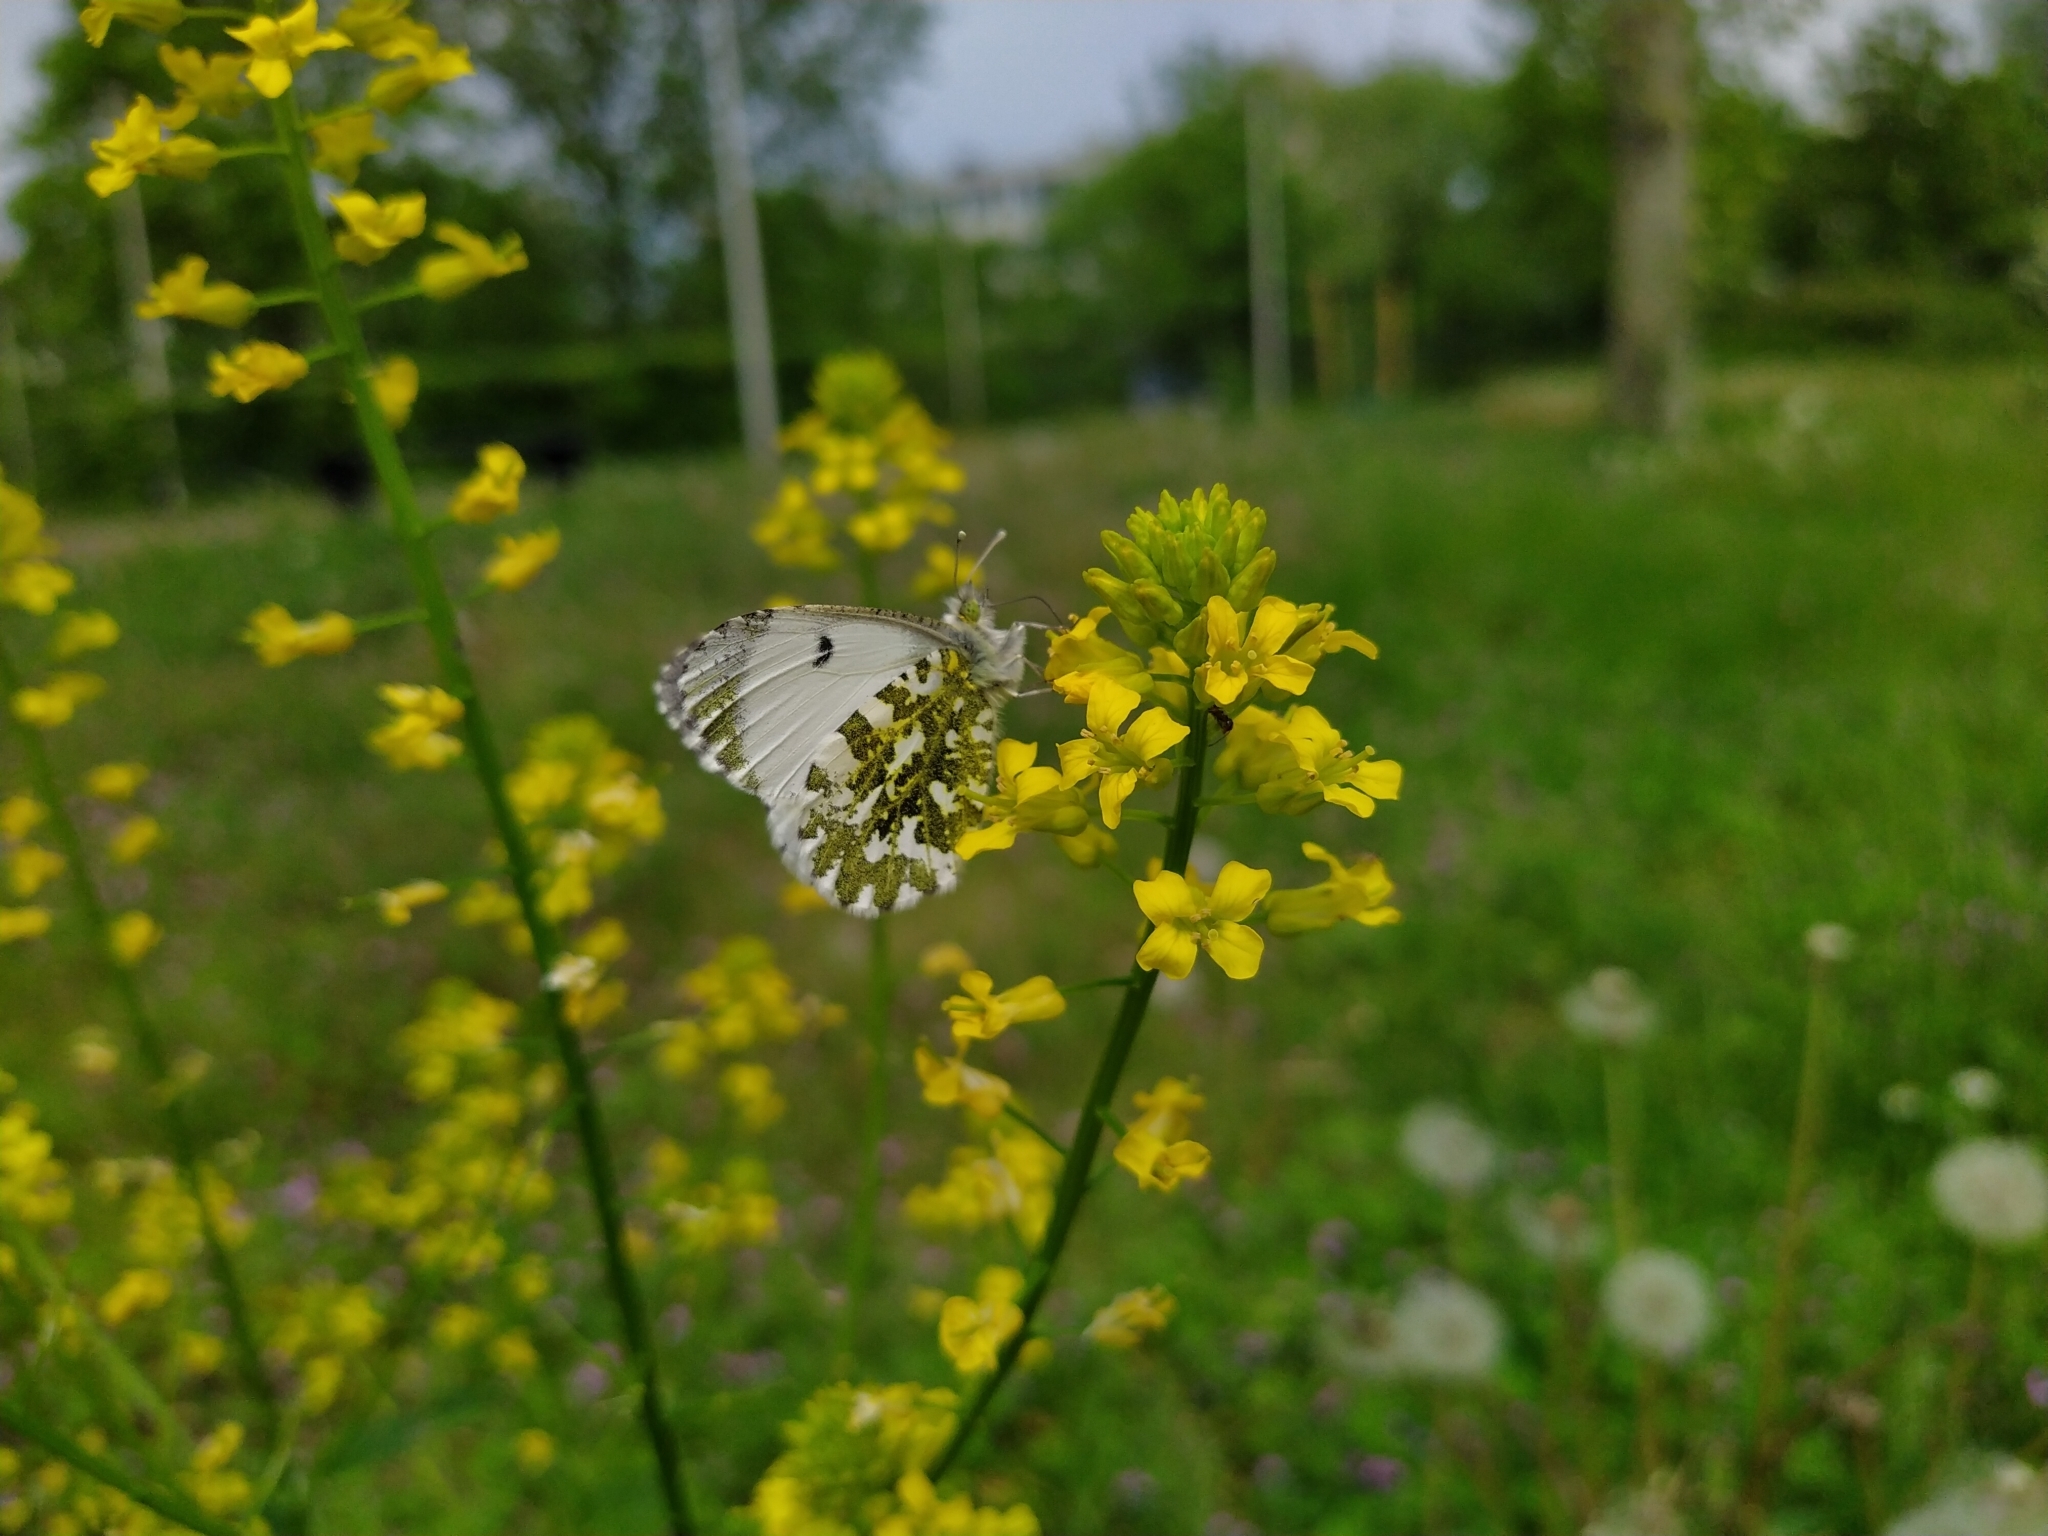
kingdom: Animalia
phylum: Arthropoda
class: Insecta
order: Lepidoptera
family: Pieridae
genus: Anthocharis
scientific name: Anthocharis cardamines
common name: Orange-tip
